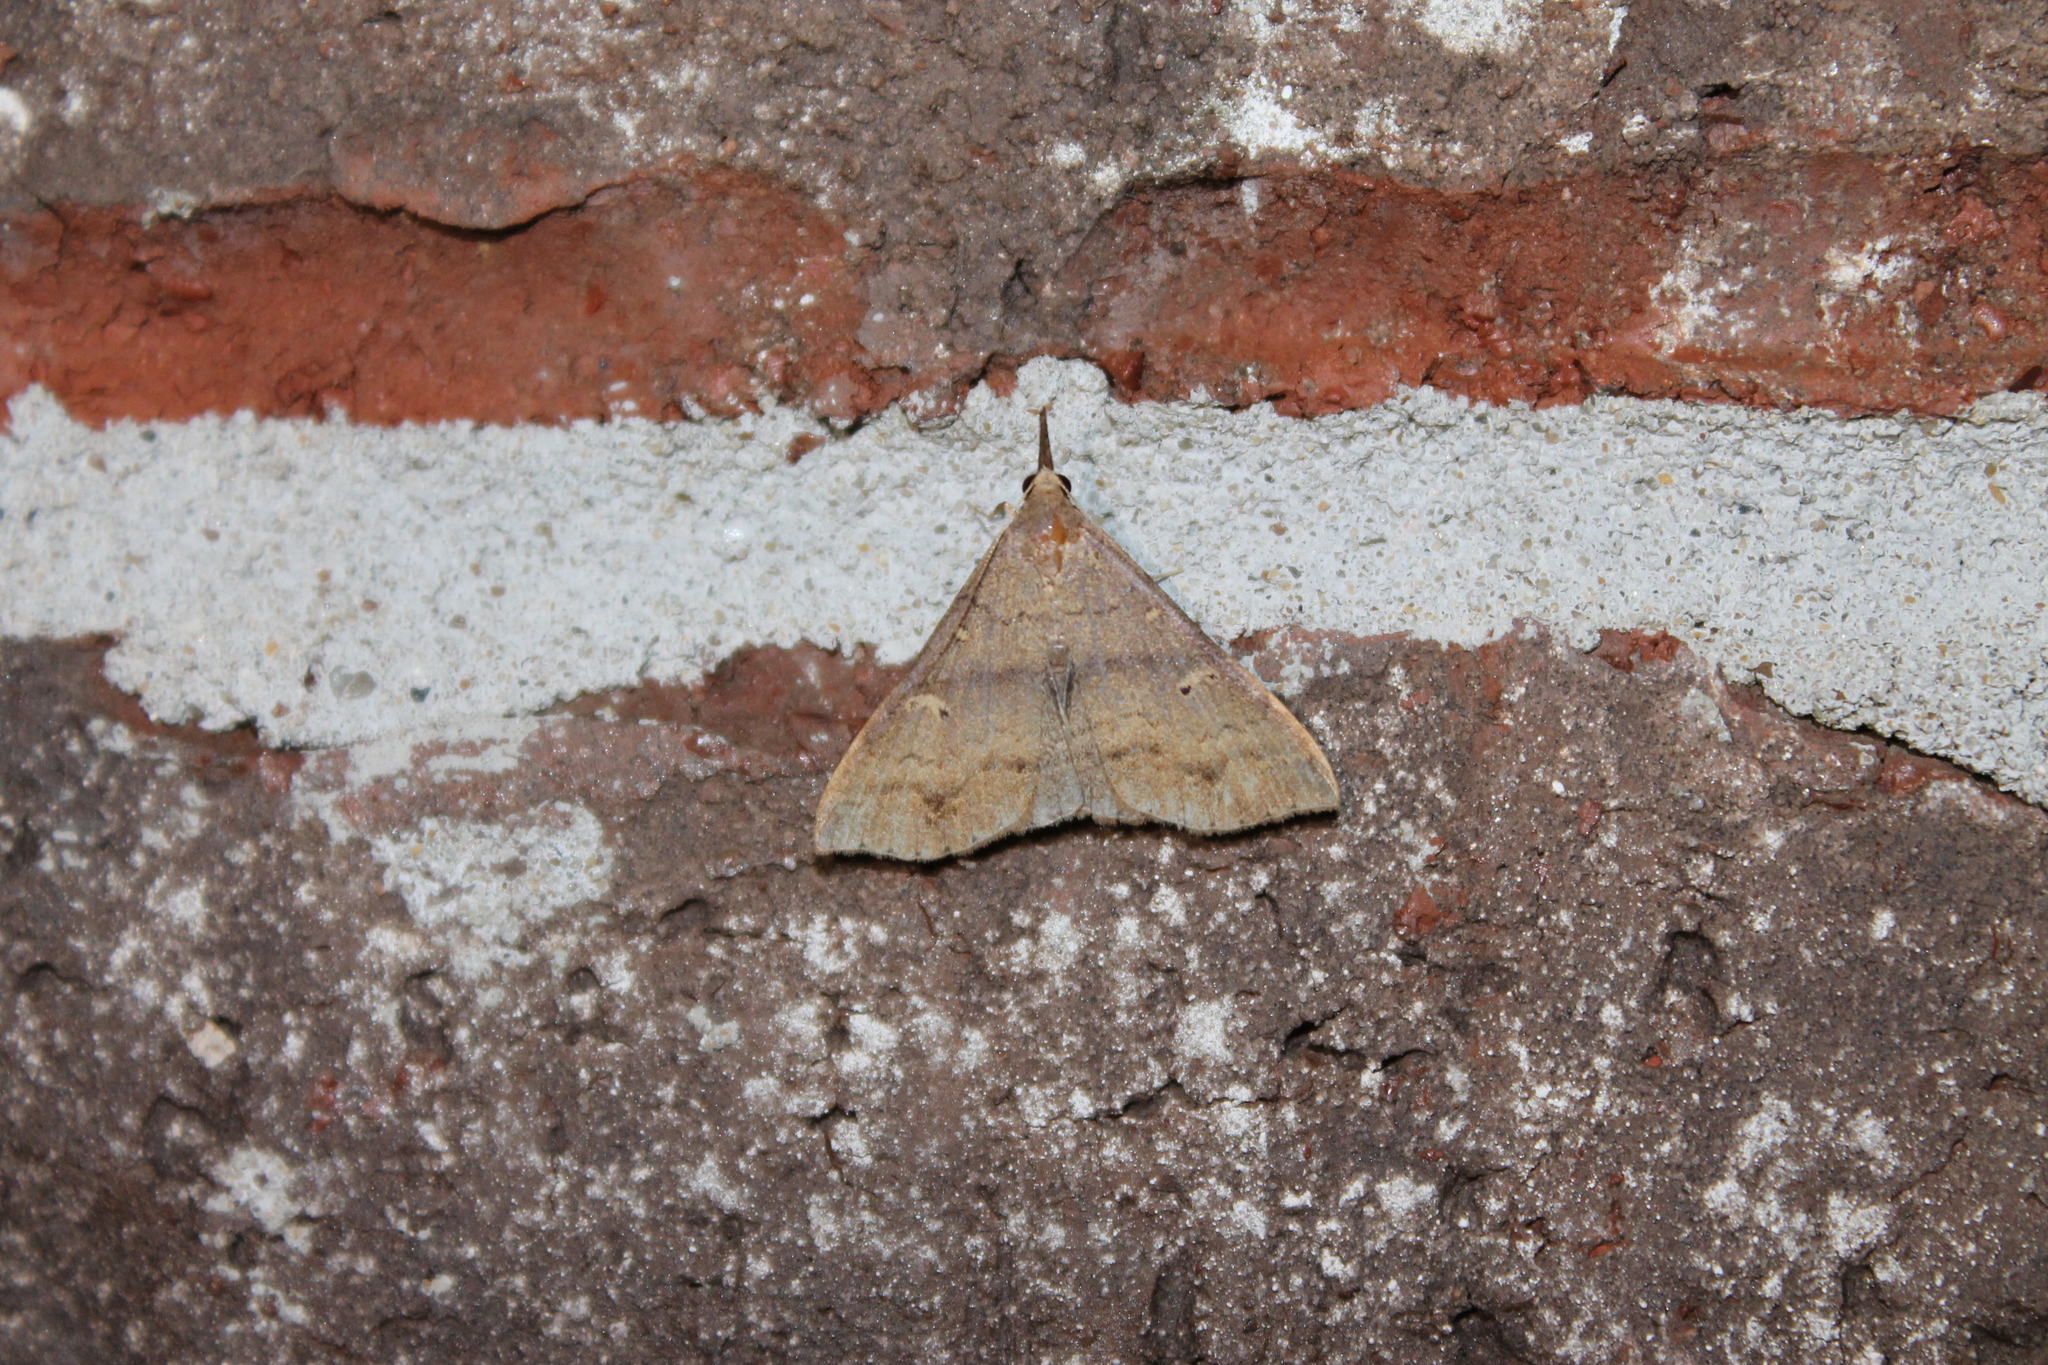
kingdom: Animalia
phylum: Arthropoda
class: Insecta
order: Lepidoptera
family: Erebidae
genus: Renia
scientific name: Renia adspergillus
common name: Speckled renia moth
